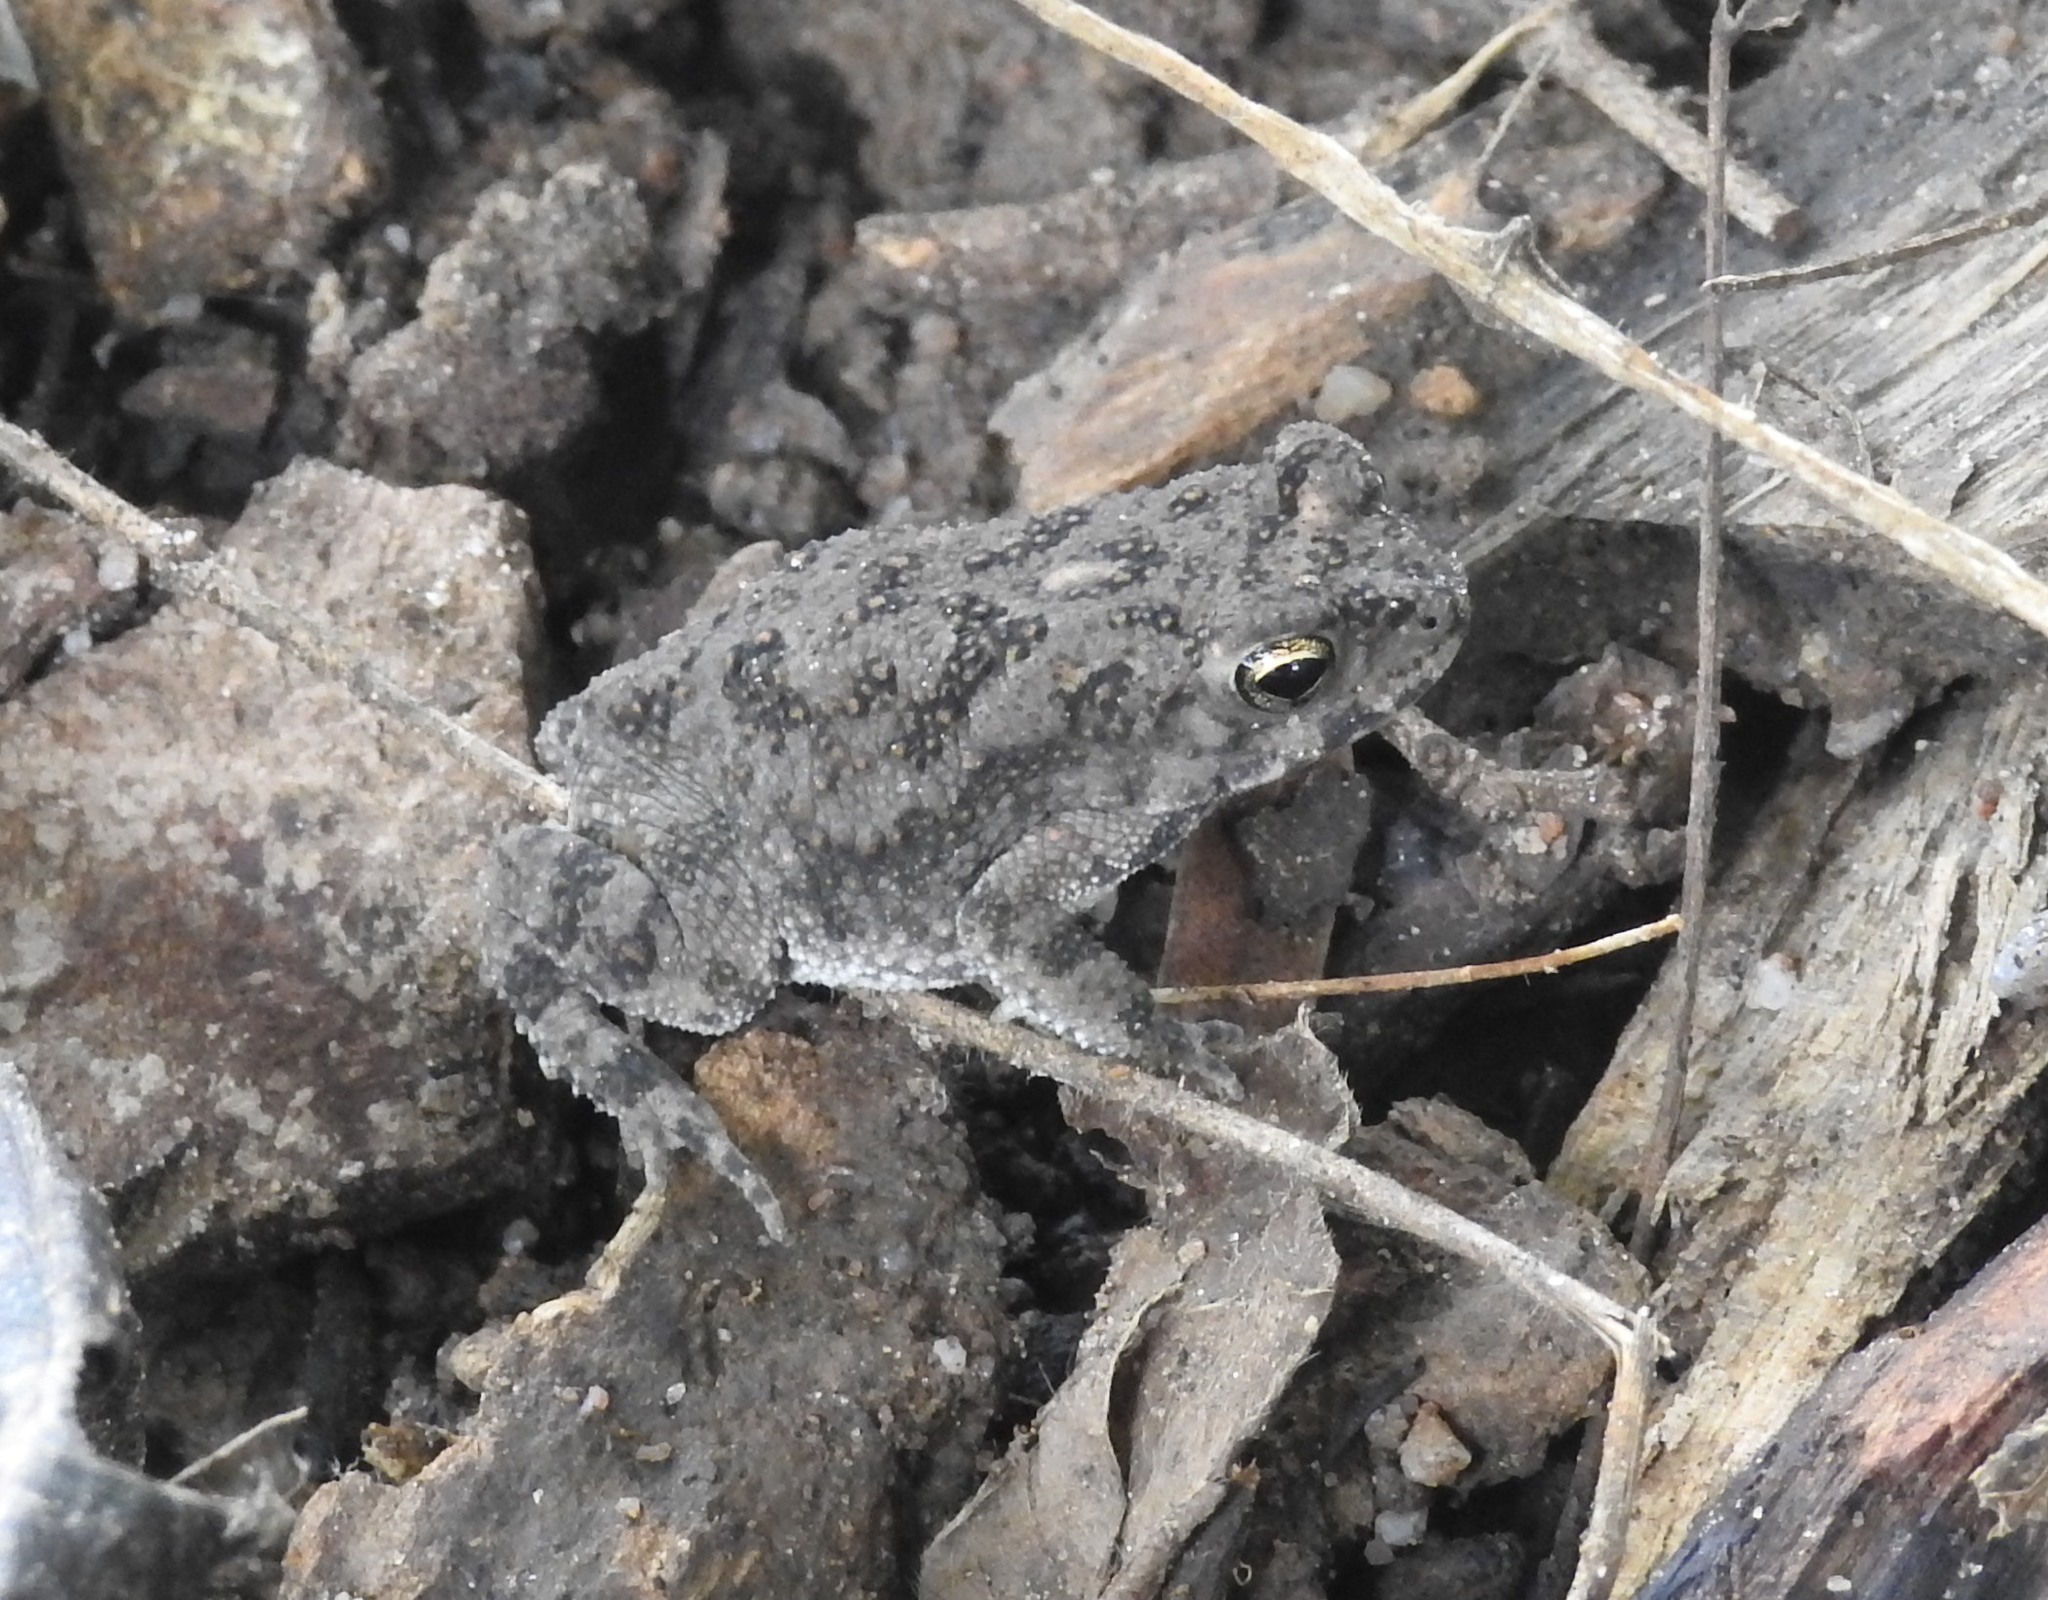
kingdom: Animalia
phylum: Chordata
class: Amphibia
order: Anura
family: Bufonidae
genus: Duttaphrynus
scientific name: Duttaphrynus melanostictus
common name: Common sunda toad
